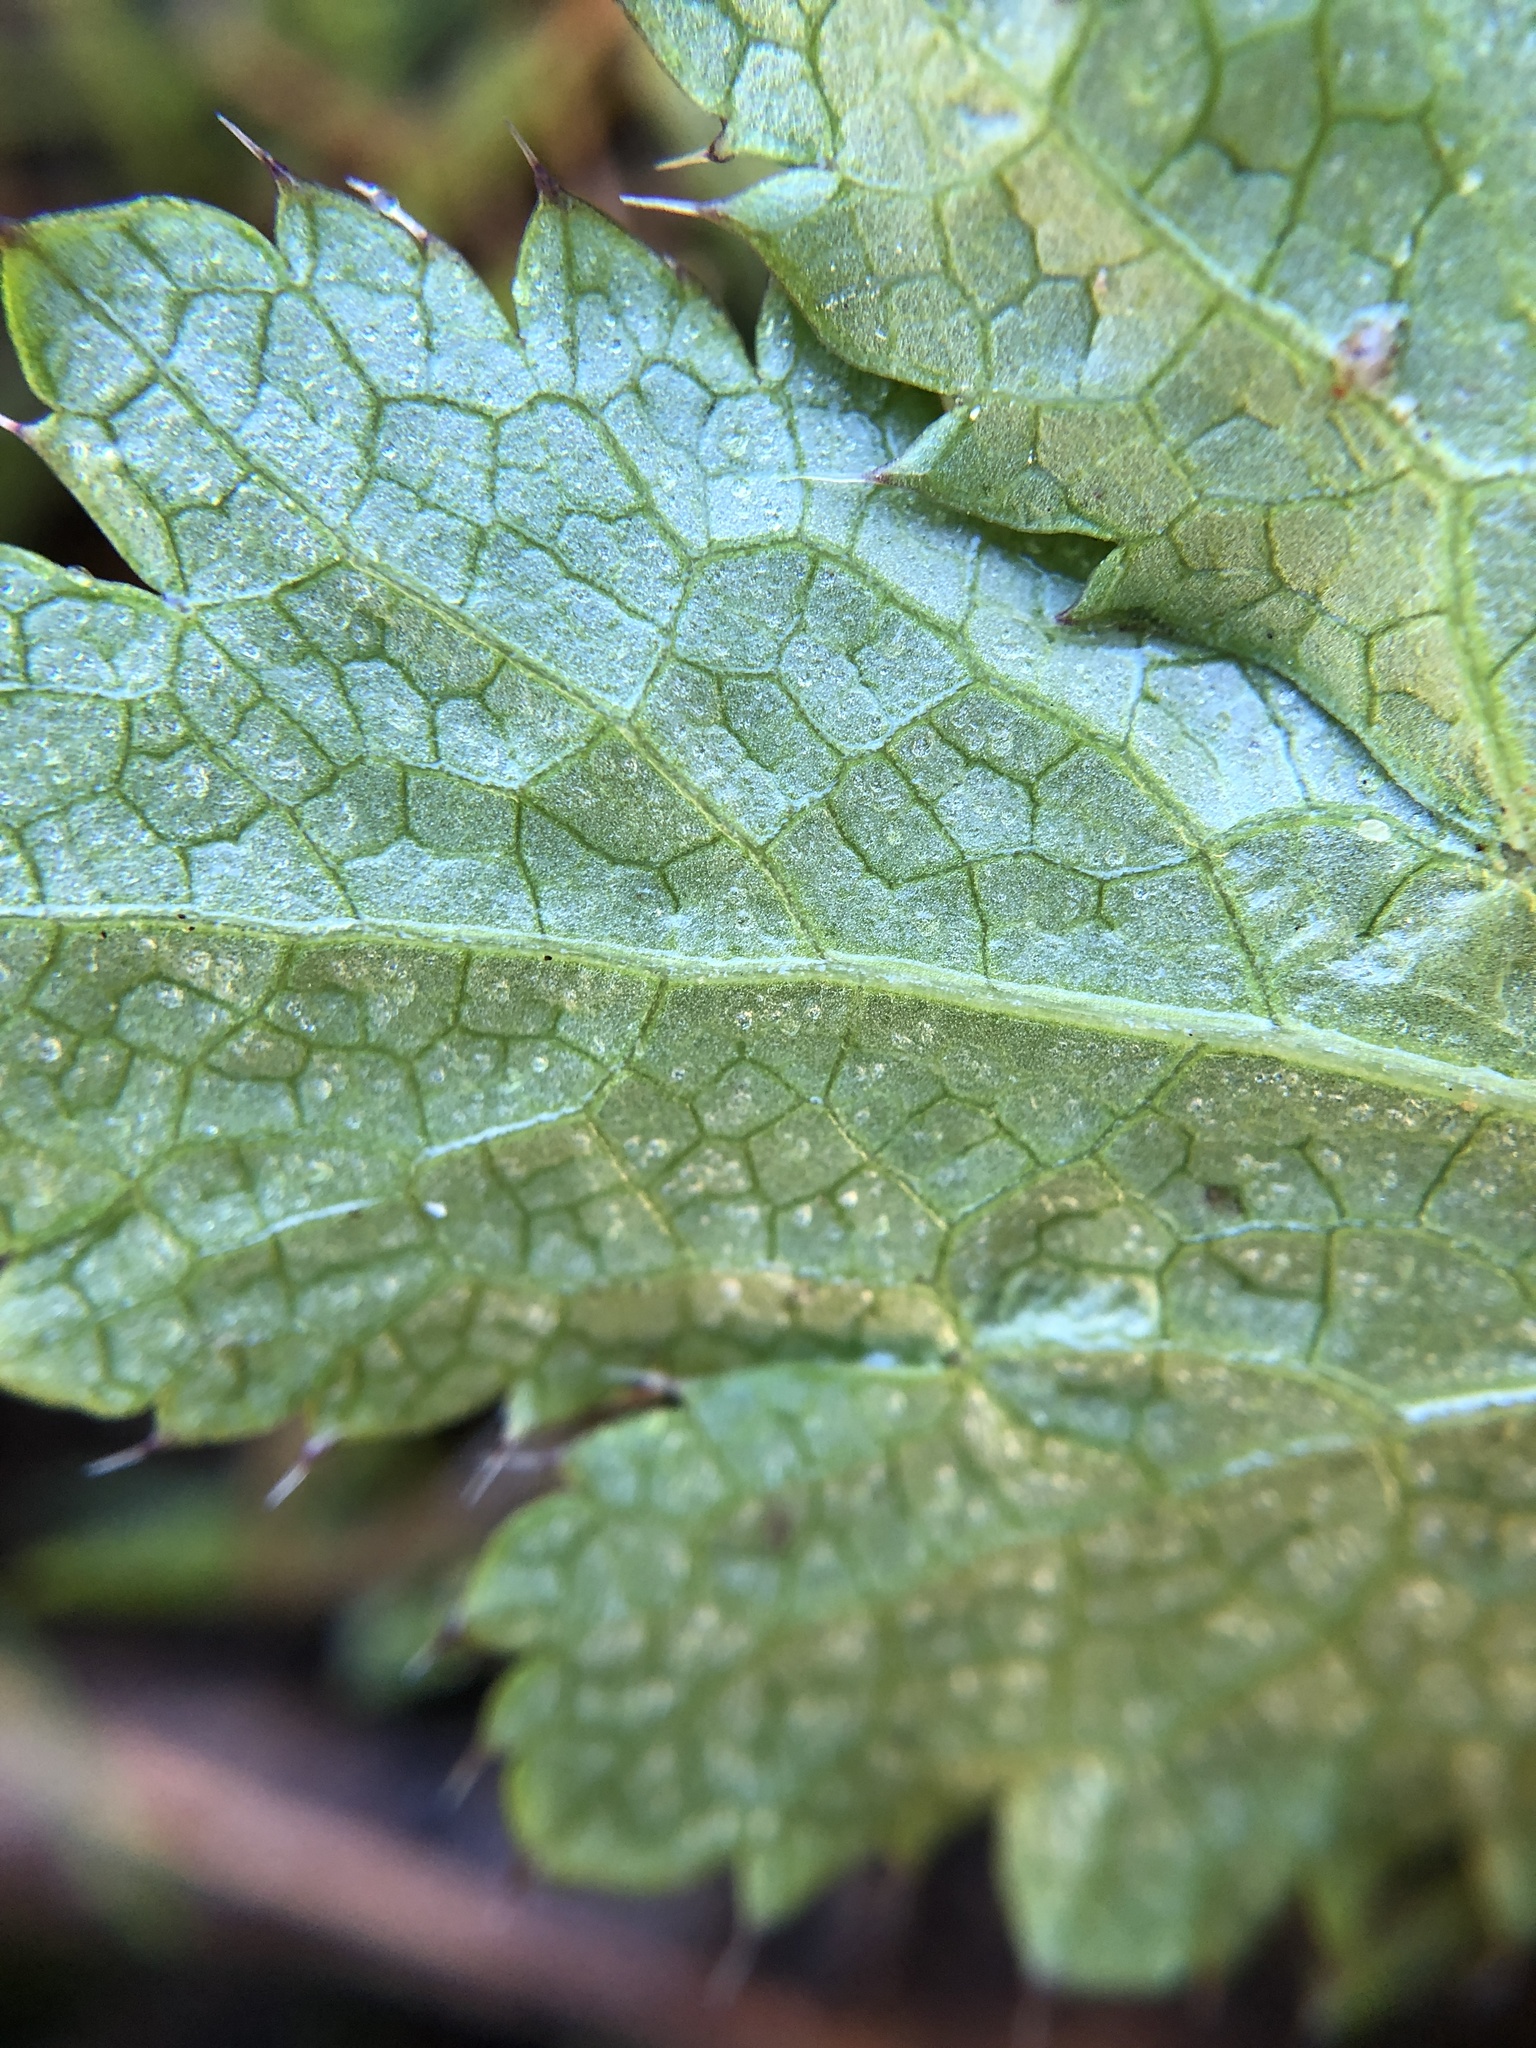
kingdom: Plantae
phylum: Tracheophyta
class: Magnoliopsida
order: Apiales
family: Apiaceae
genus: Sanicula
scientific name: Sanicula crassicaulis
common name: Western snakeroot
